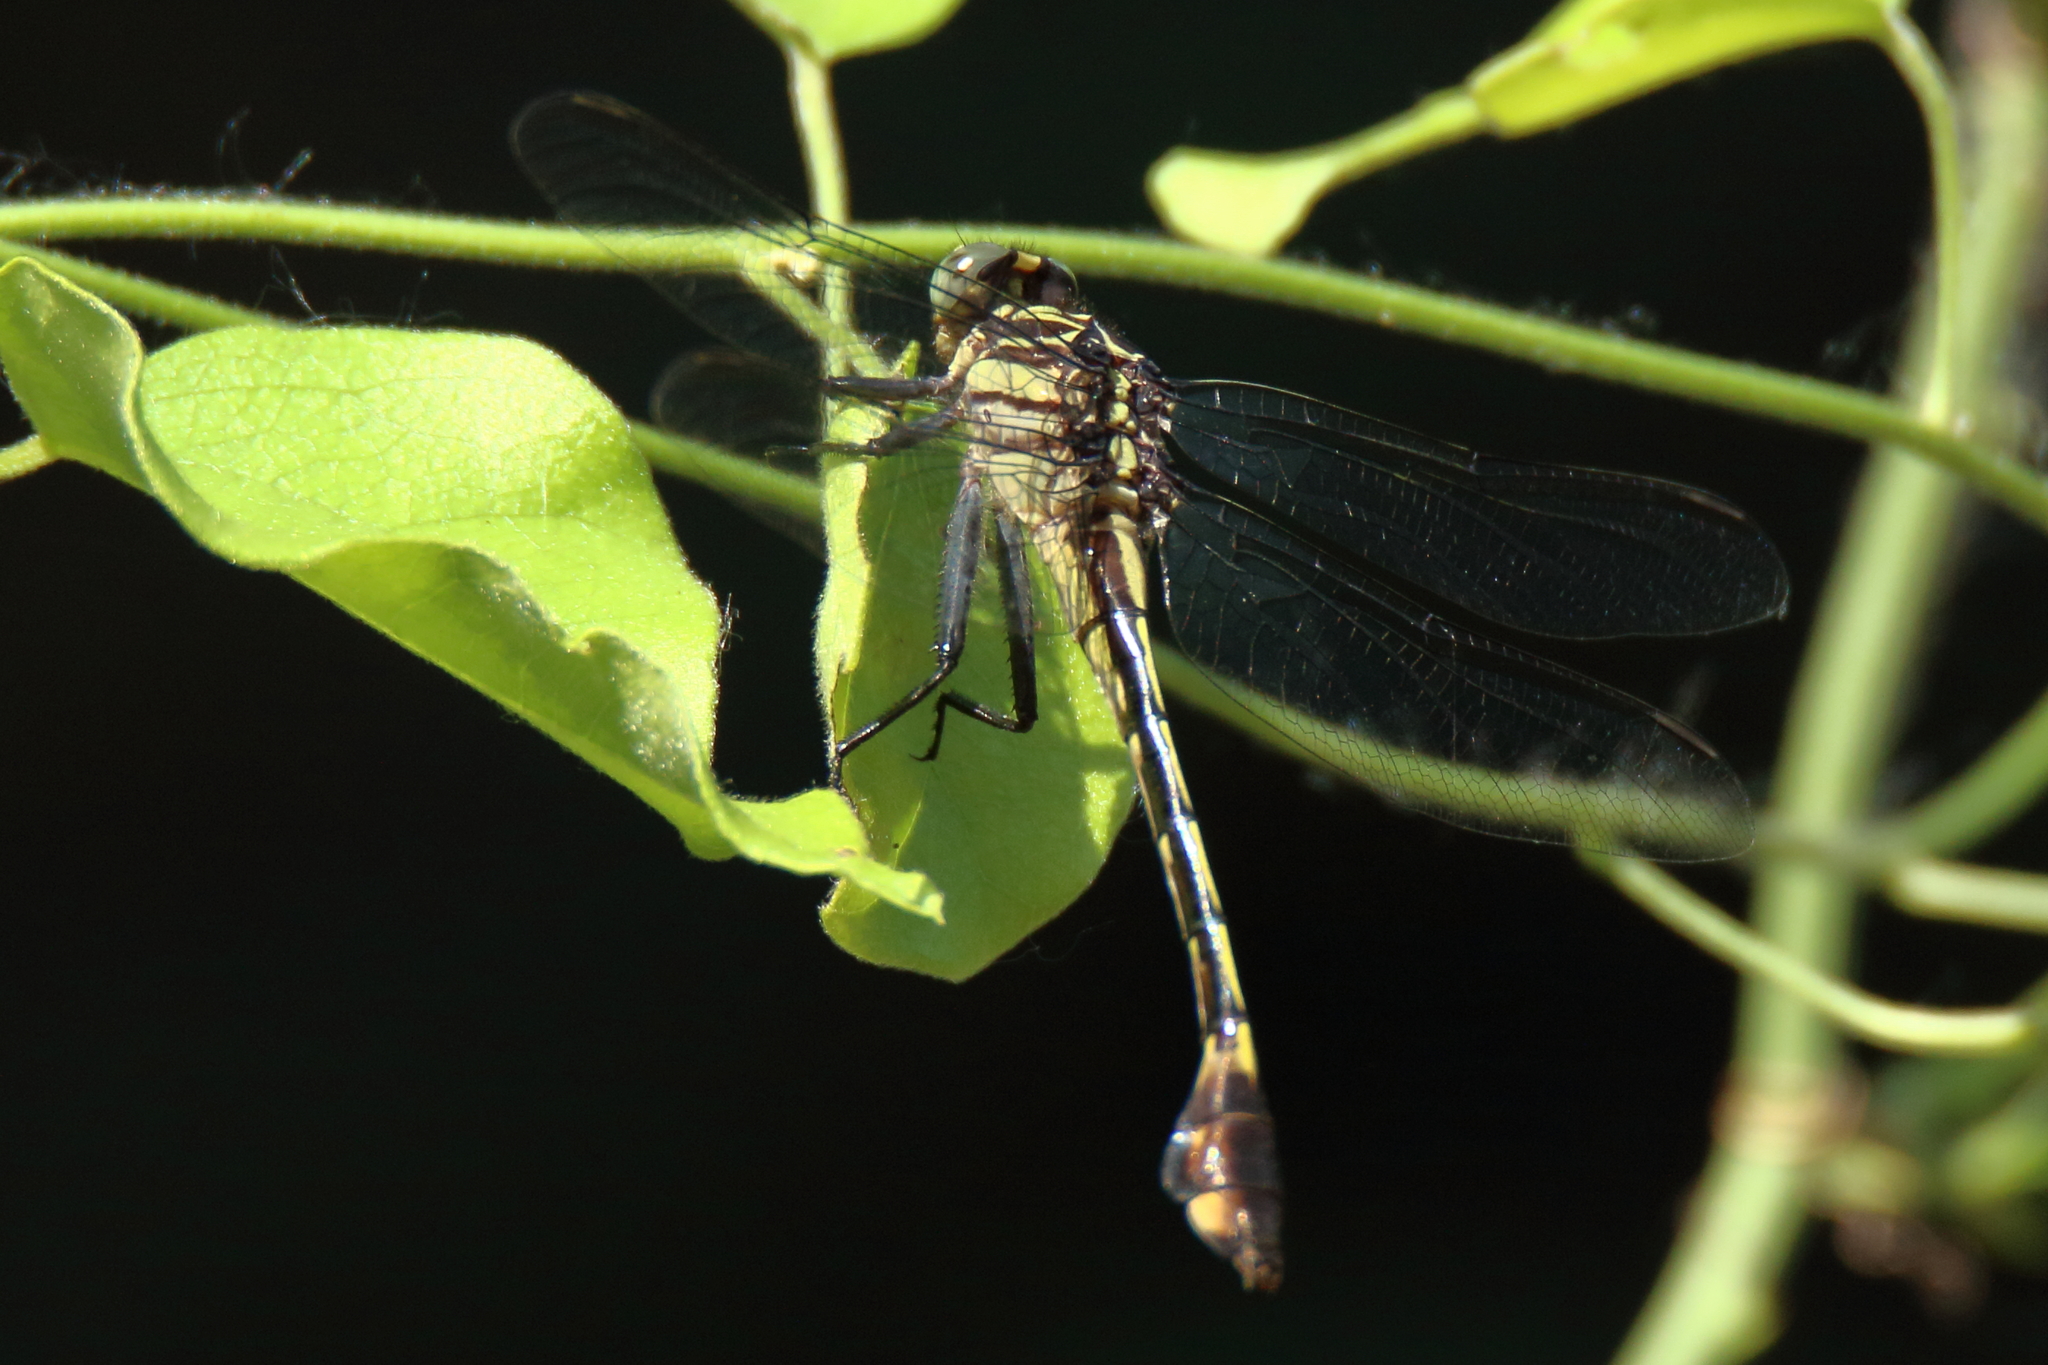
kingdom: Animalia
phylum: Arthropoda
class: Insecta
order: Odonata
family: Gomphidae
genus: Gomphurus
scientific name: Gomphurus vastus
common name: Cobra clubtail
